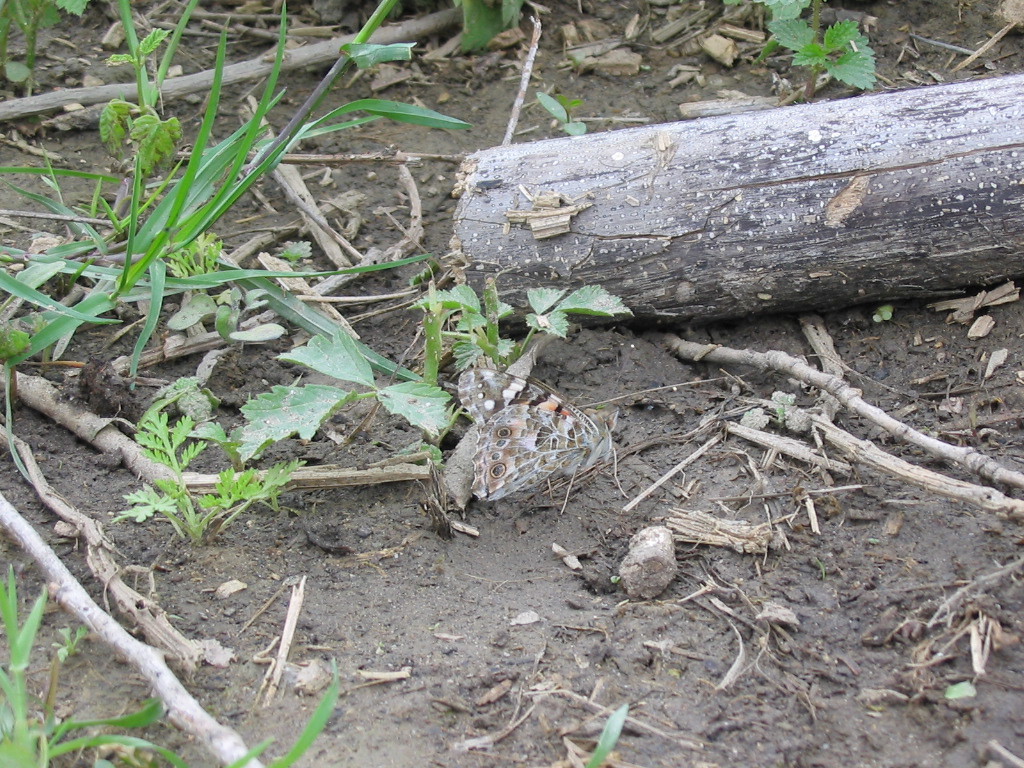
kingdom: Animalia
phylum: Arthropoda
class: Insecta
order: Lepidoptera
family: Nymphalidae
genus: Vanessa
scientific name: Vanessa cardui
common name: Painted lady
